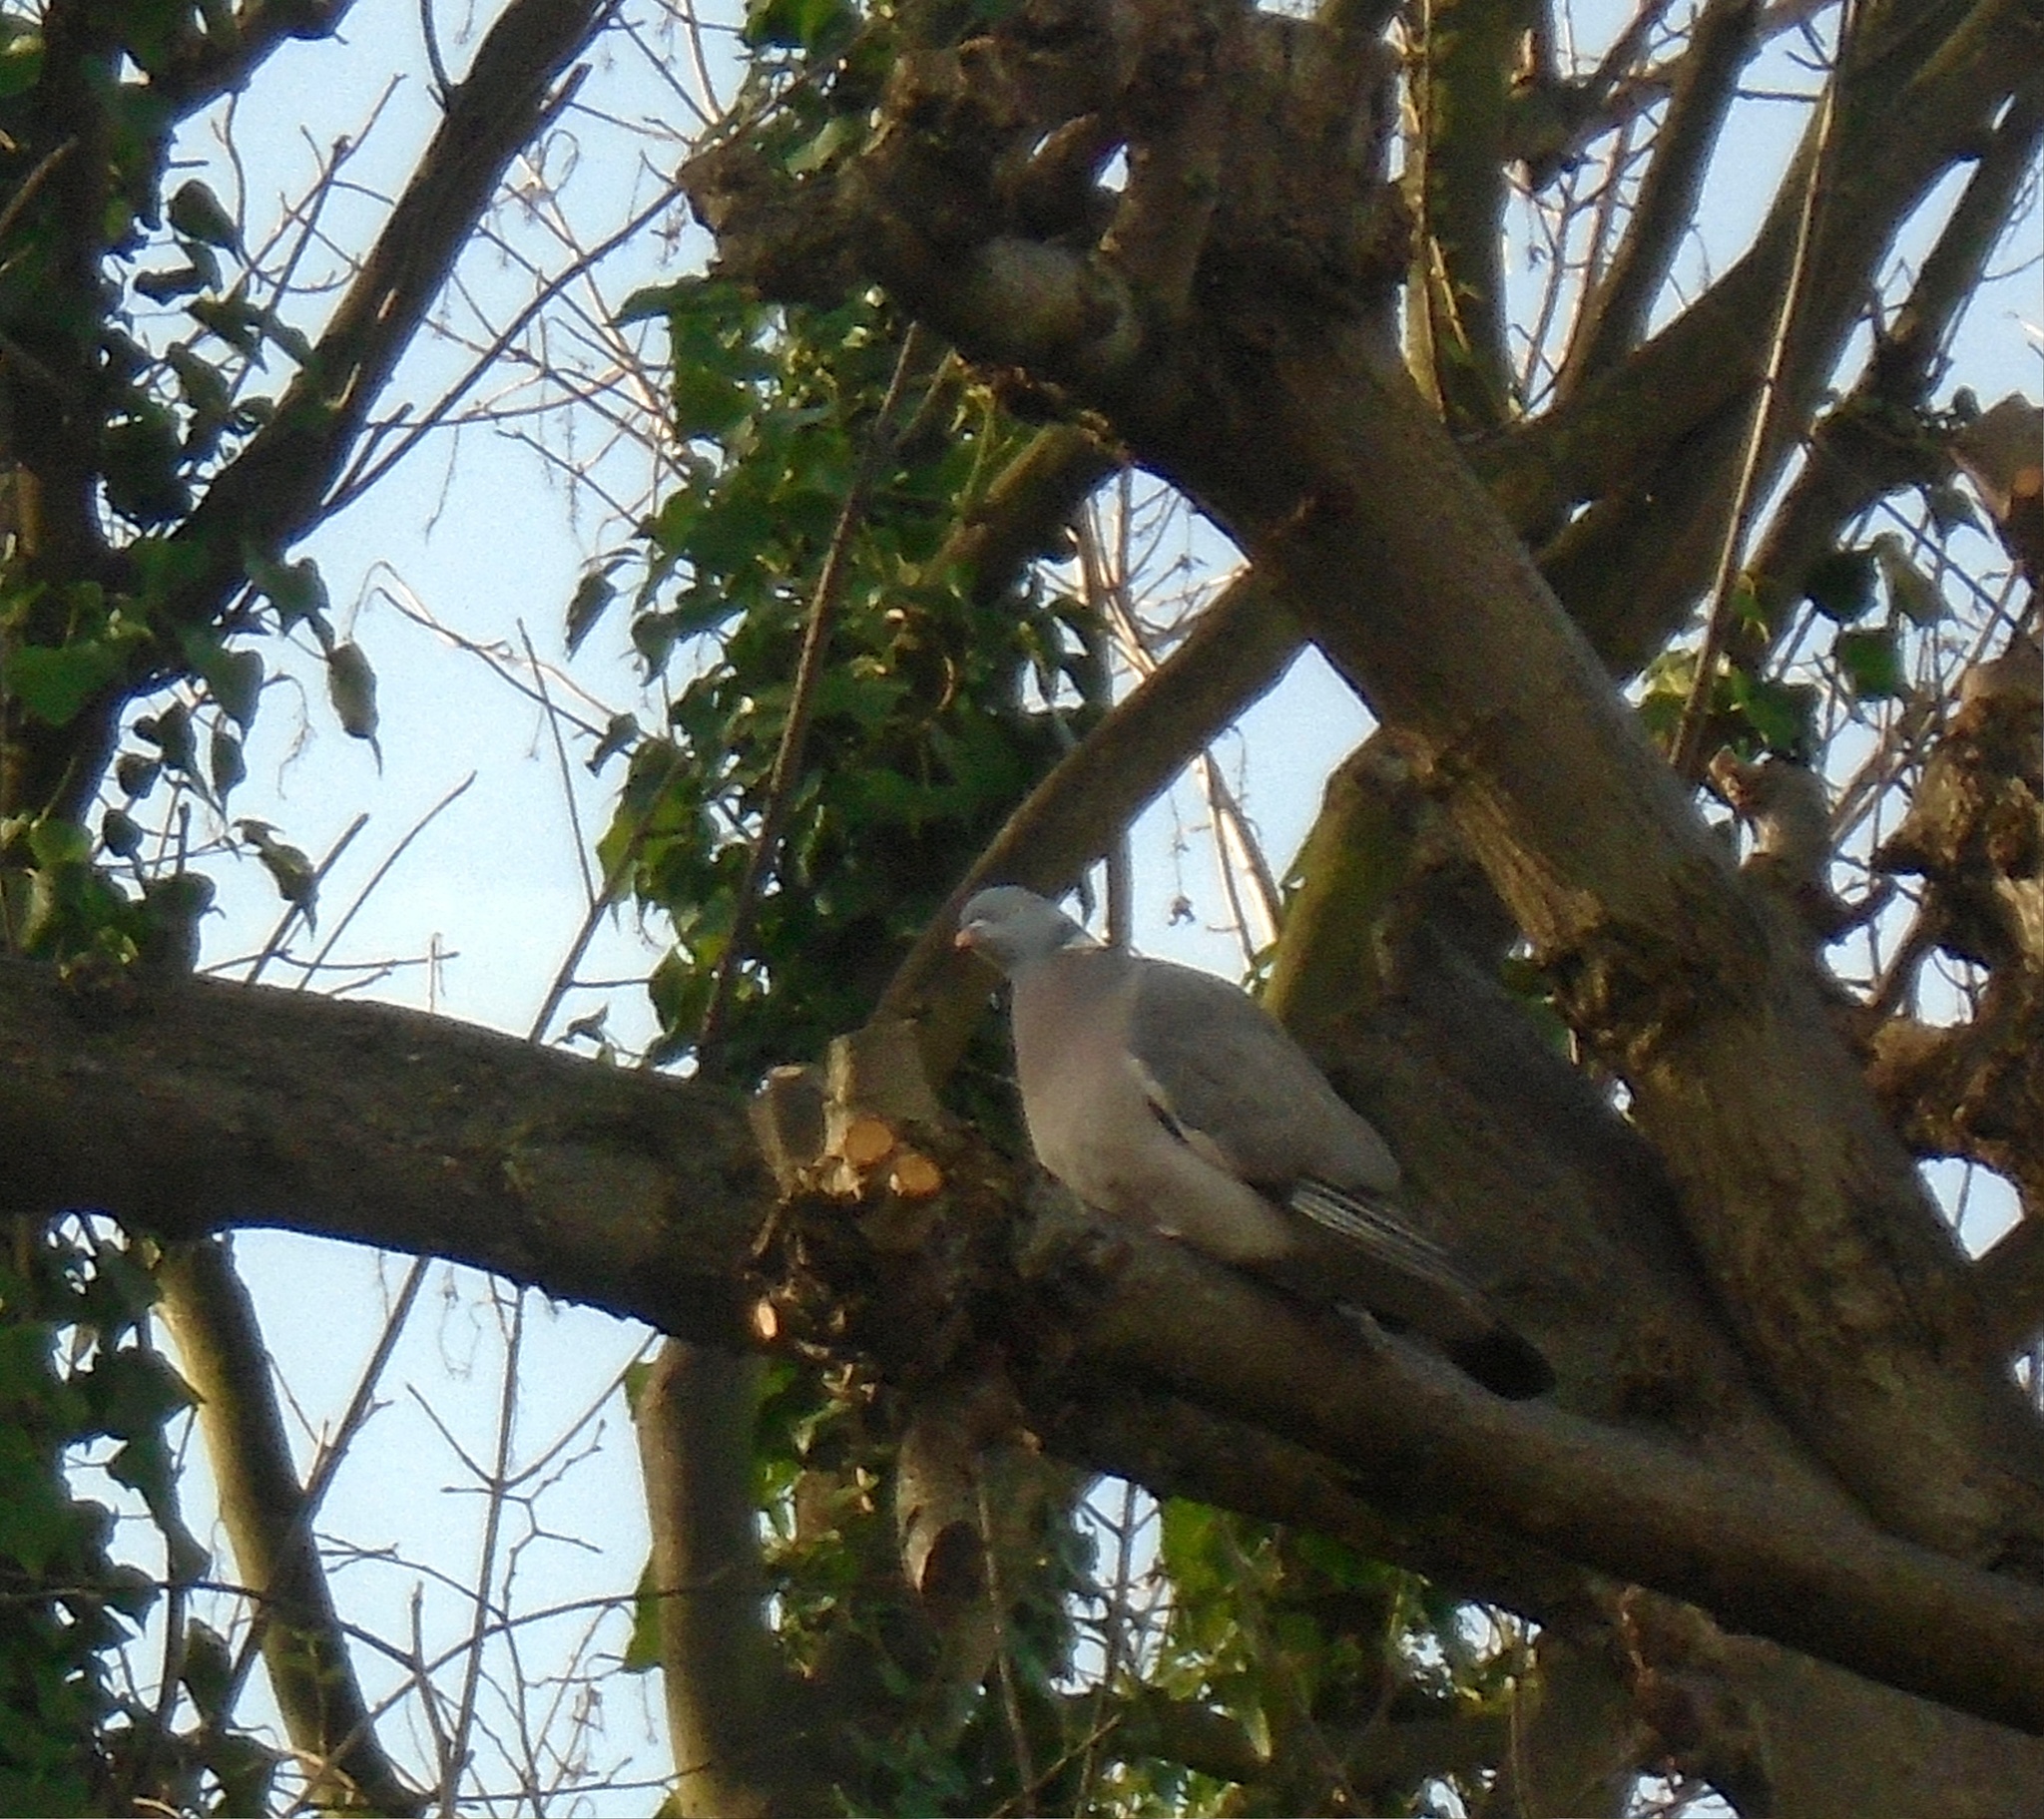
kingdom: Animalia
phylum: Chordata
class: Aves
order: Columbiformes
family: Columbidae
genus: Columba
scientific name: Columba palumbus
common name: Common wood pigeon
